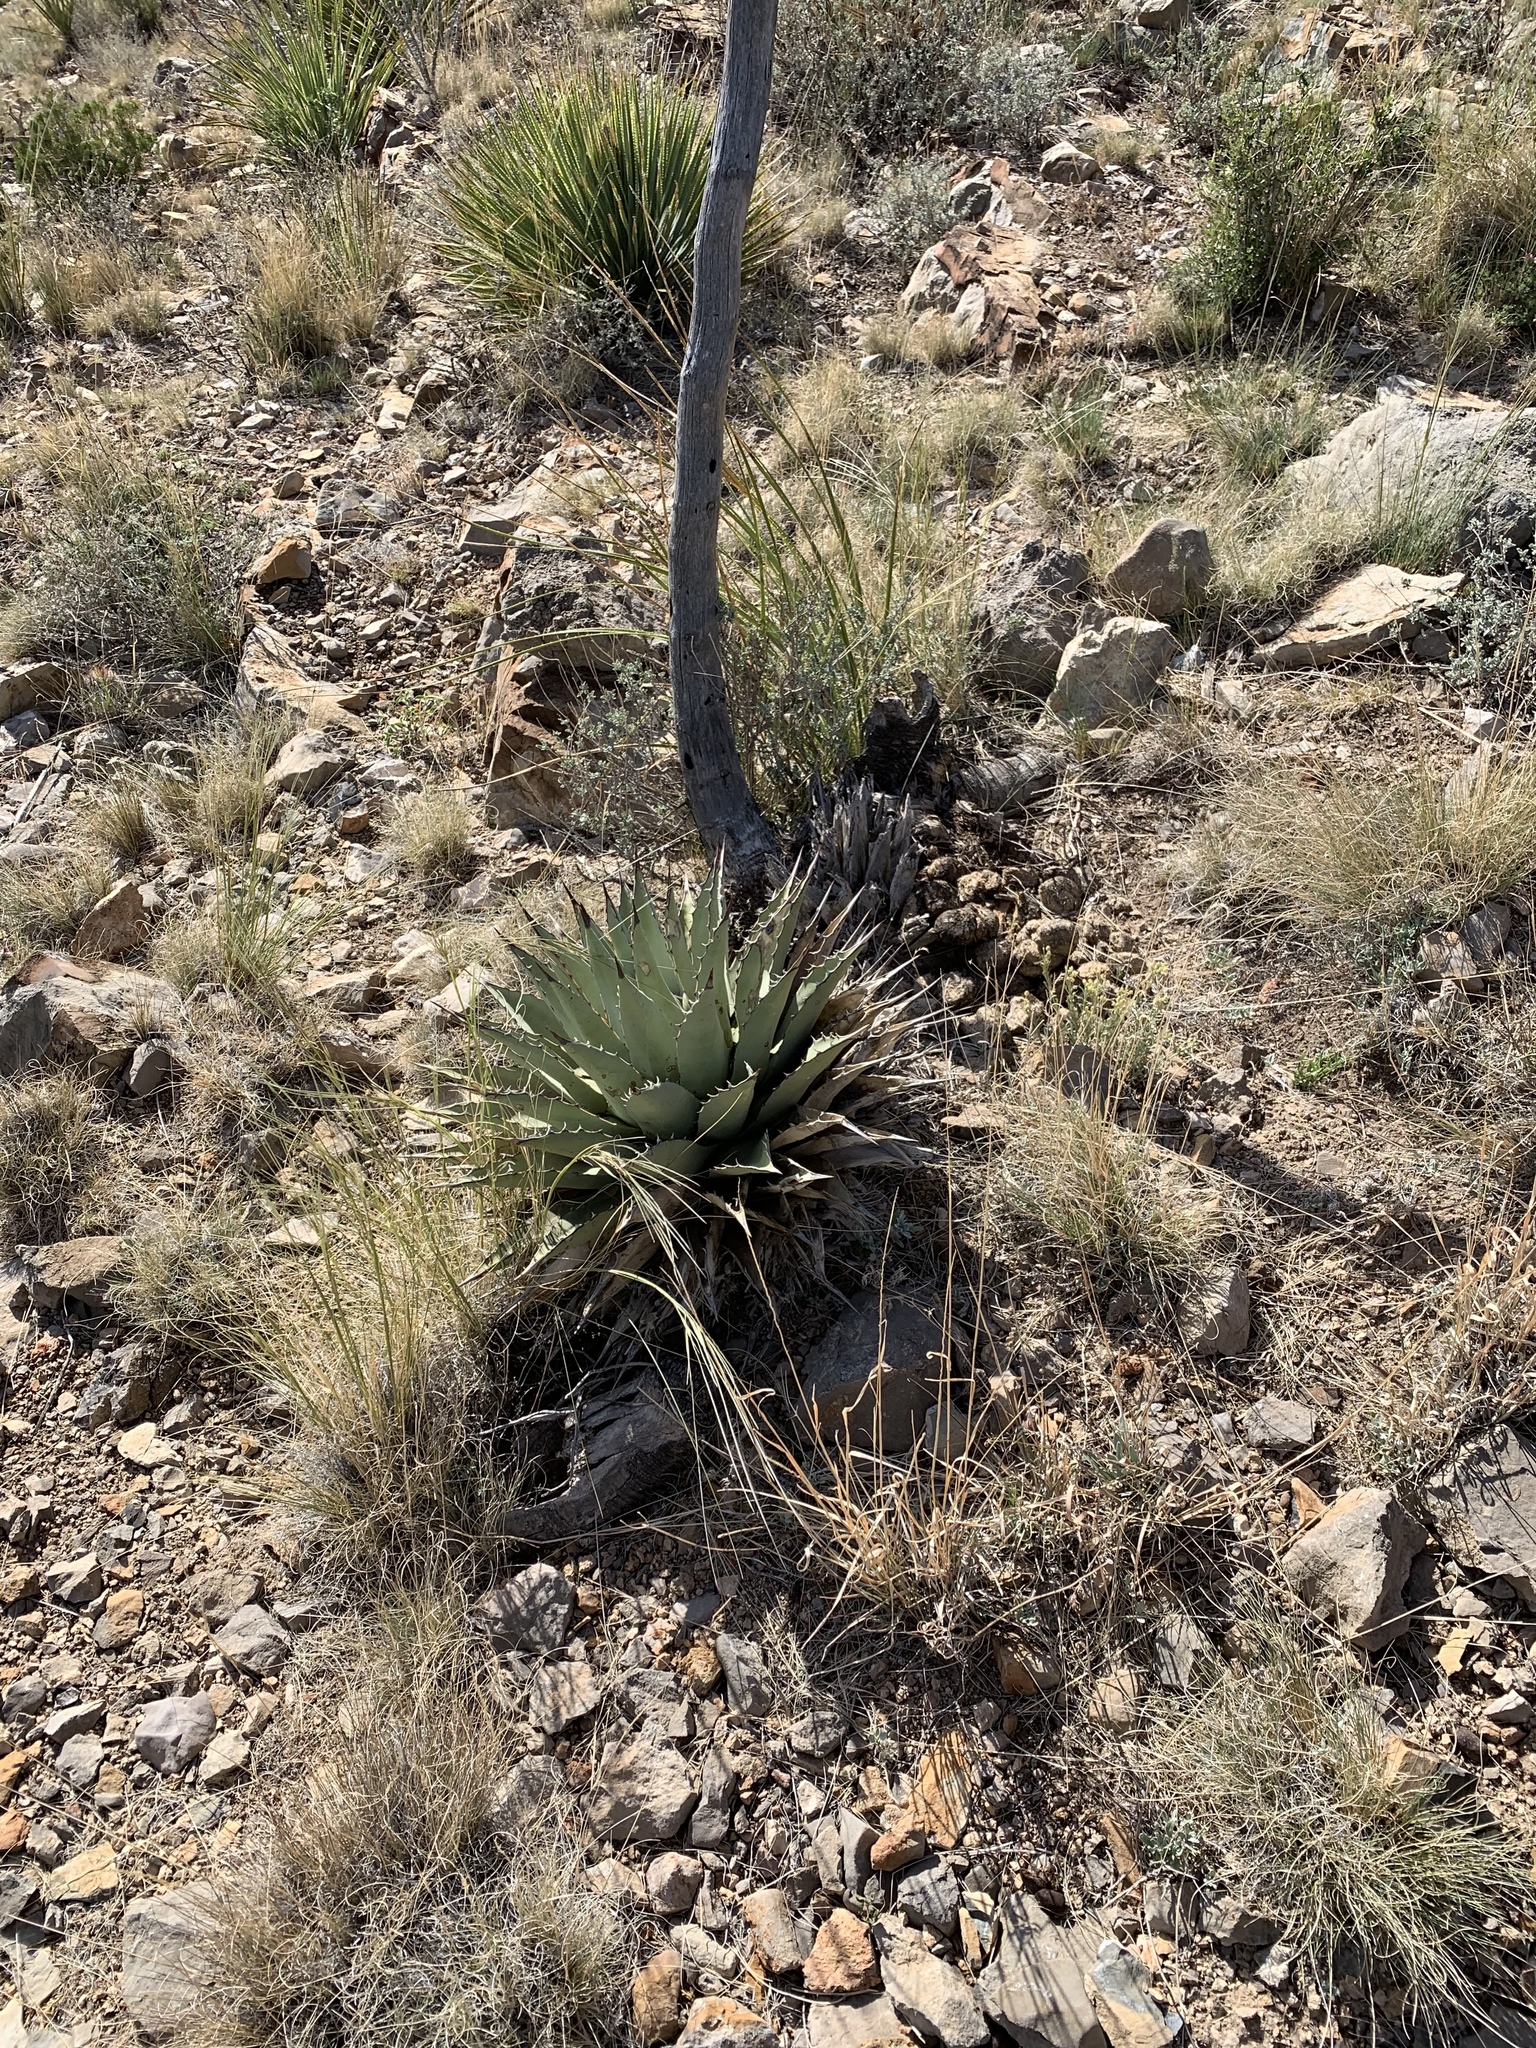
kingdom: Plantae
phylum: Tracheophyta
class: Liliopsida
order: Asparagales
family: Asparagaceae
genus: Agave
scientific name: Agave parryi
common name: Parry's agave
